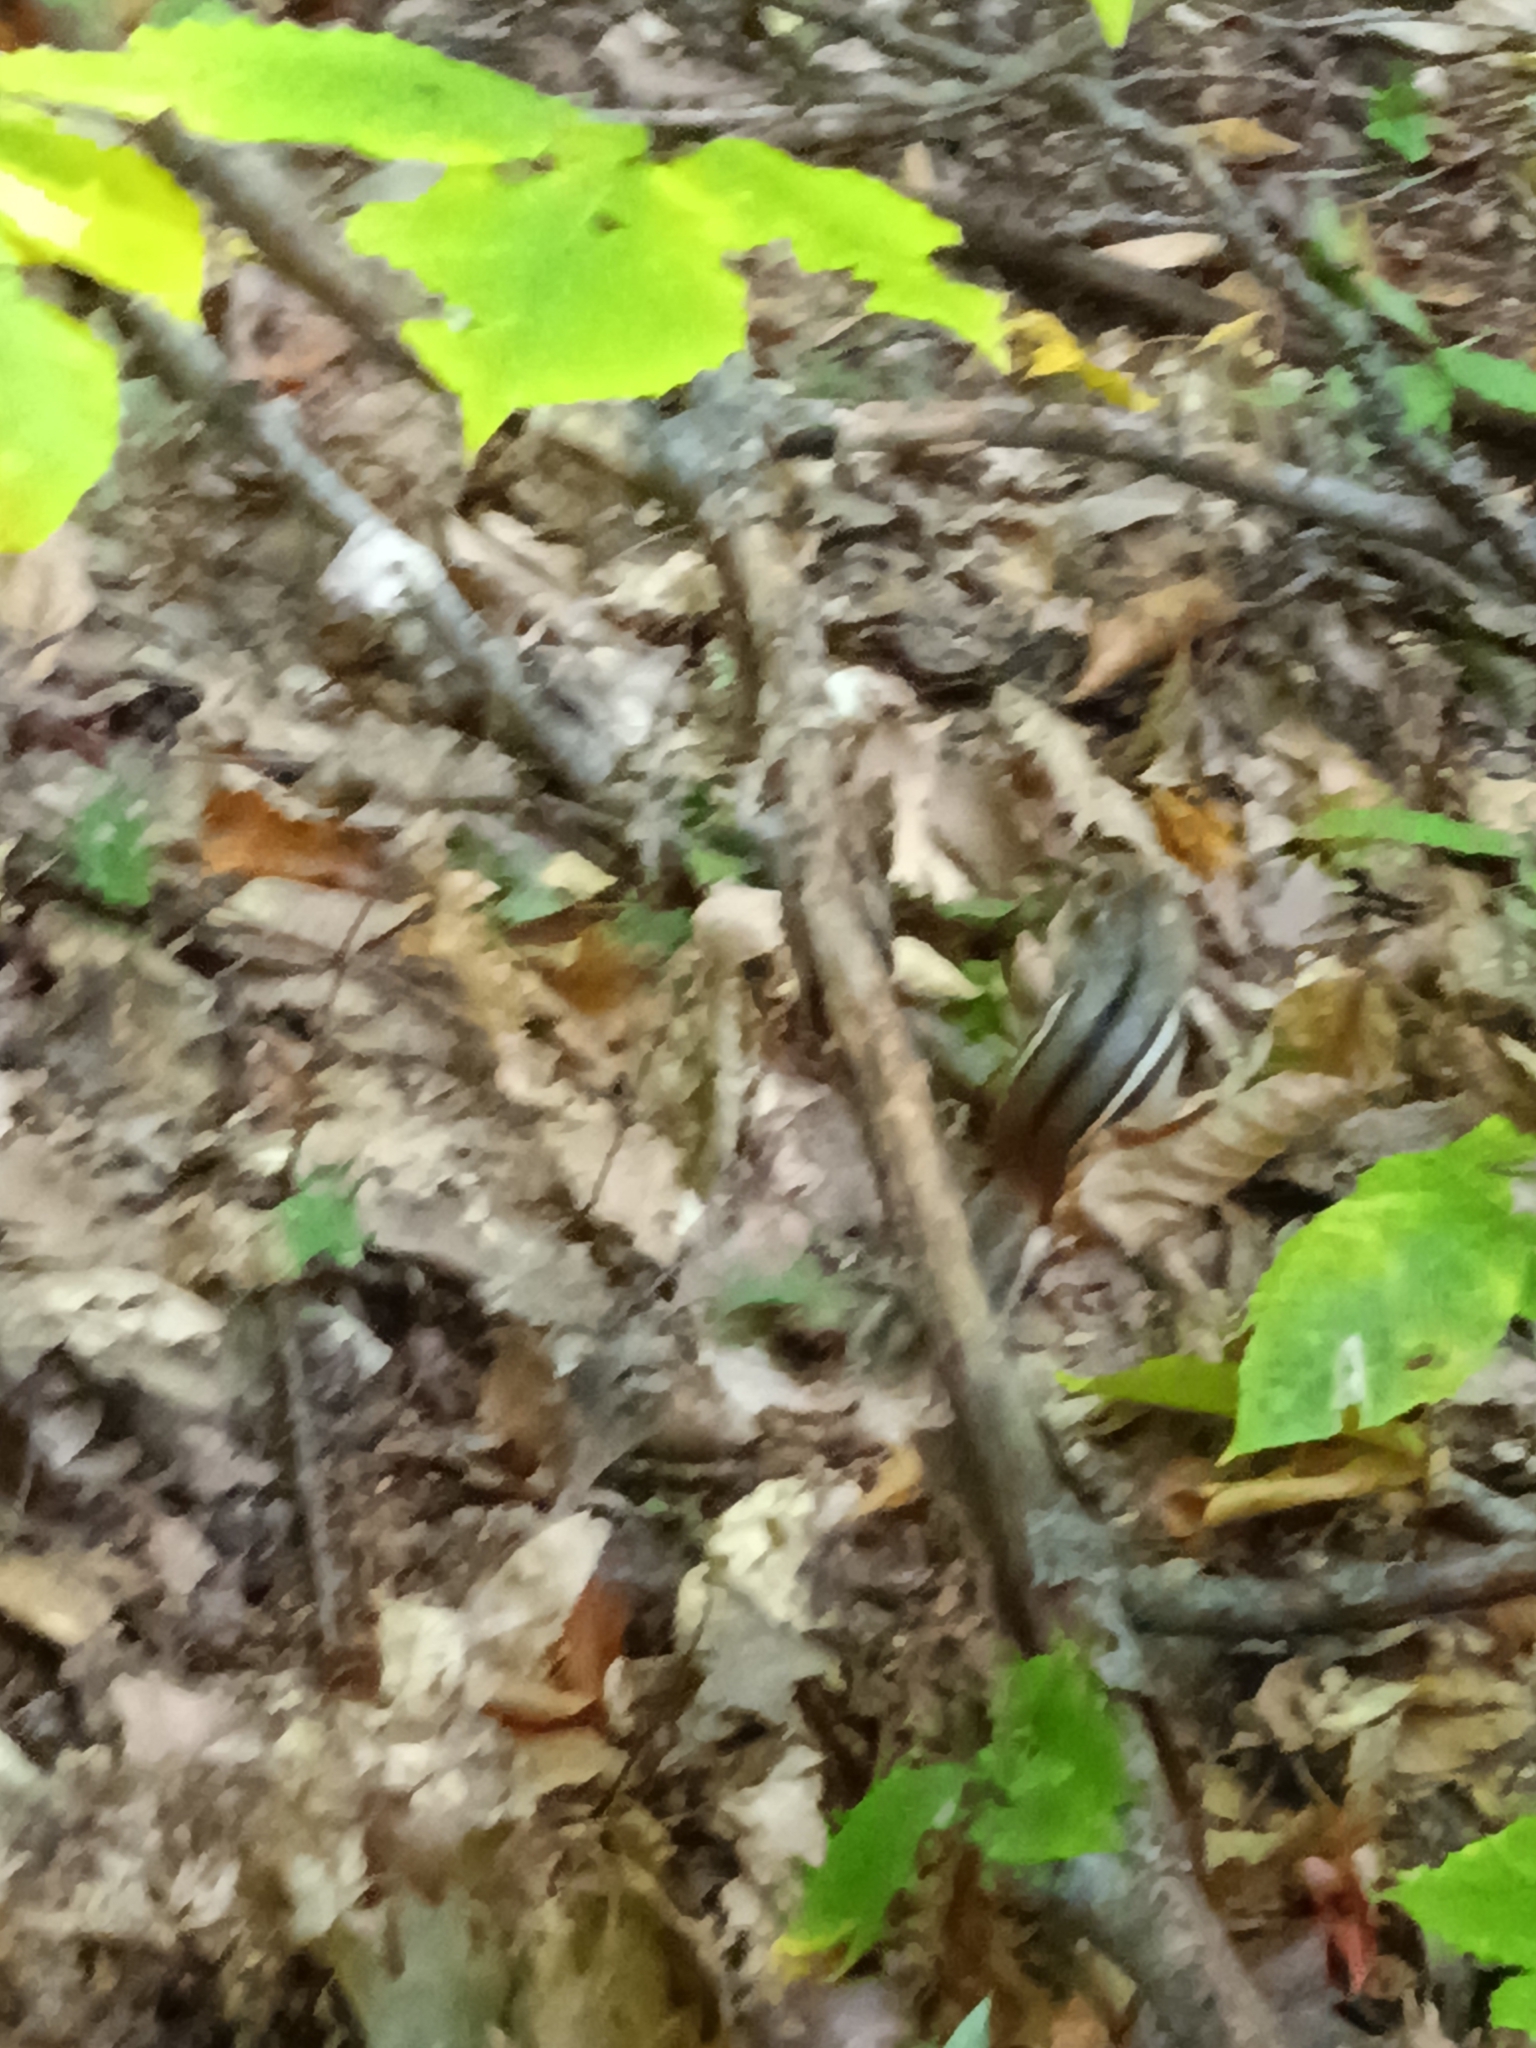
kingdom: Animalia
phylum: Chordata
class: Mammalia
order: Rodentia
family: Sciuridae
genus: Tamias
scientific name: Tamias striatus
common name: Eastern chipmunk
